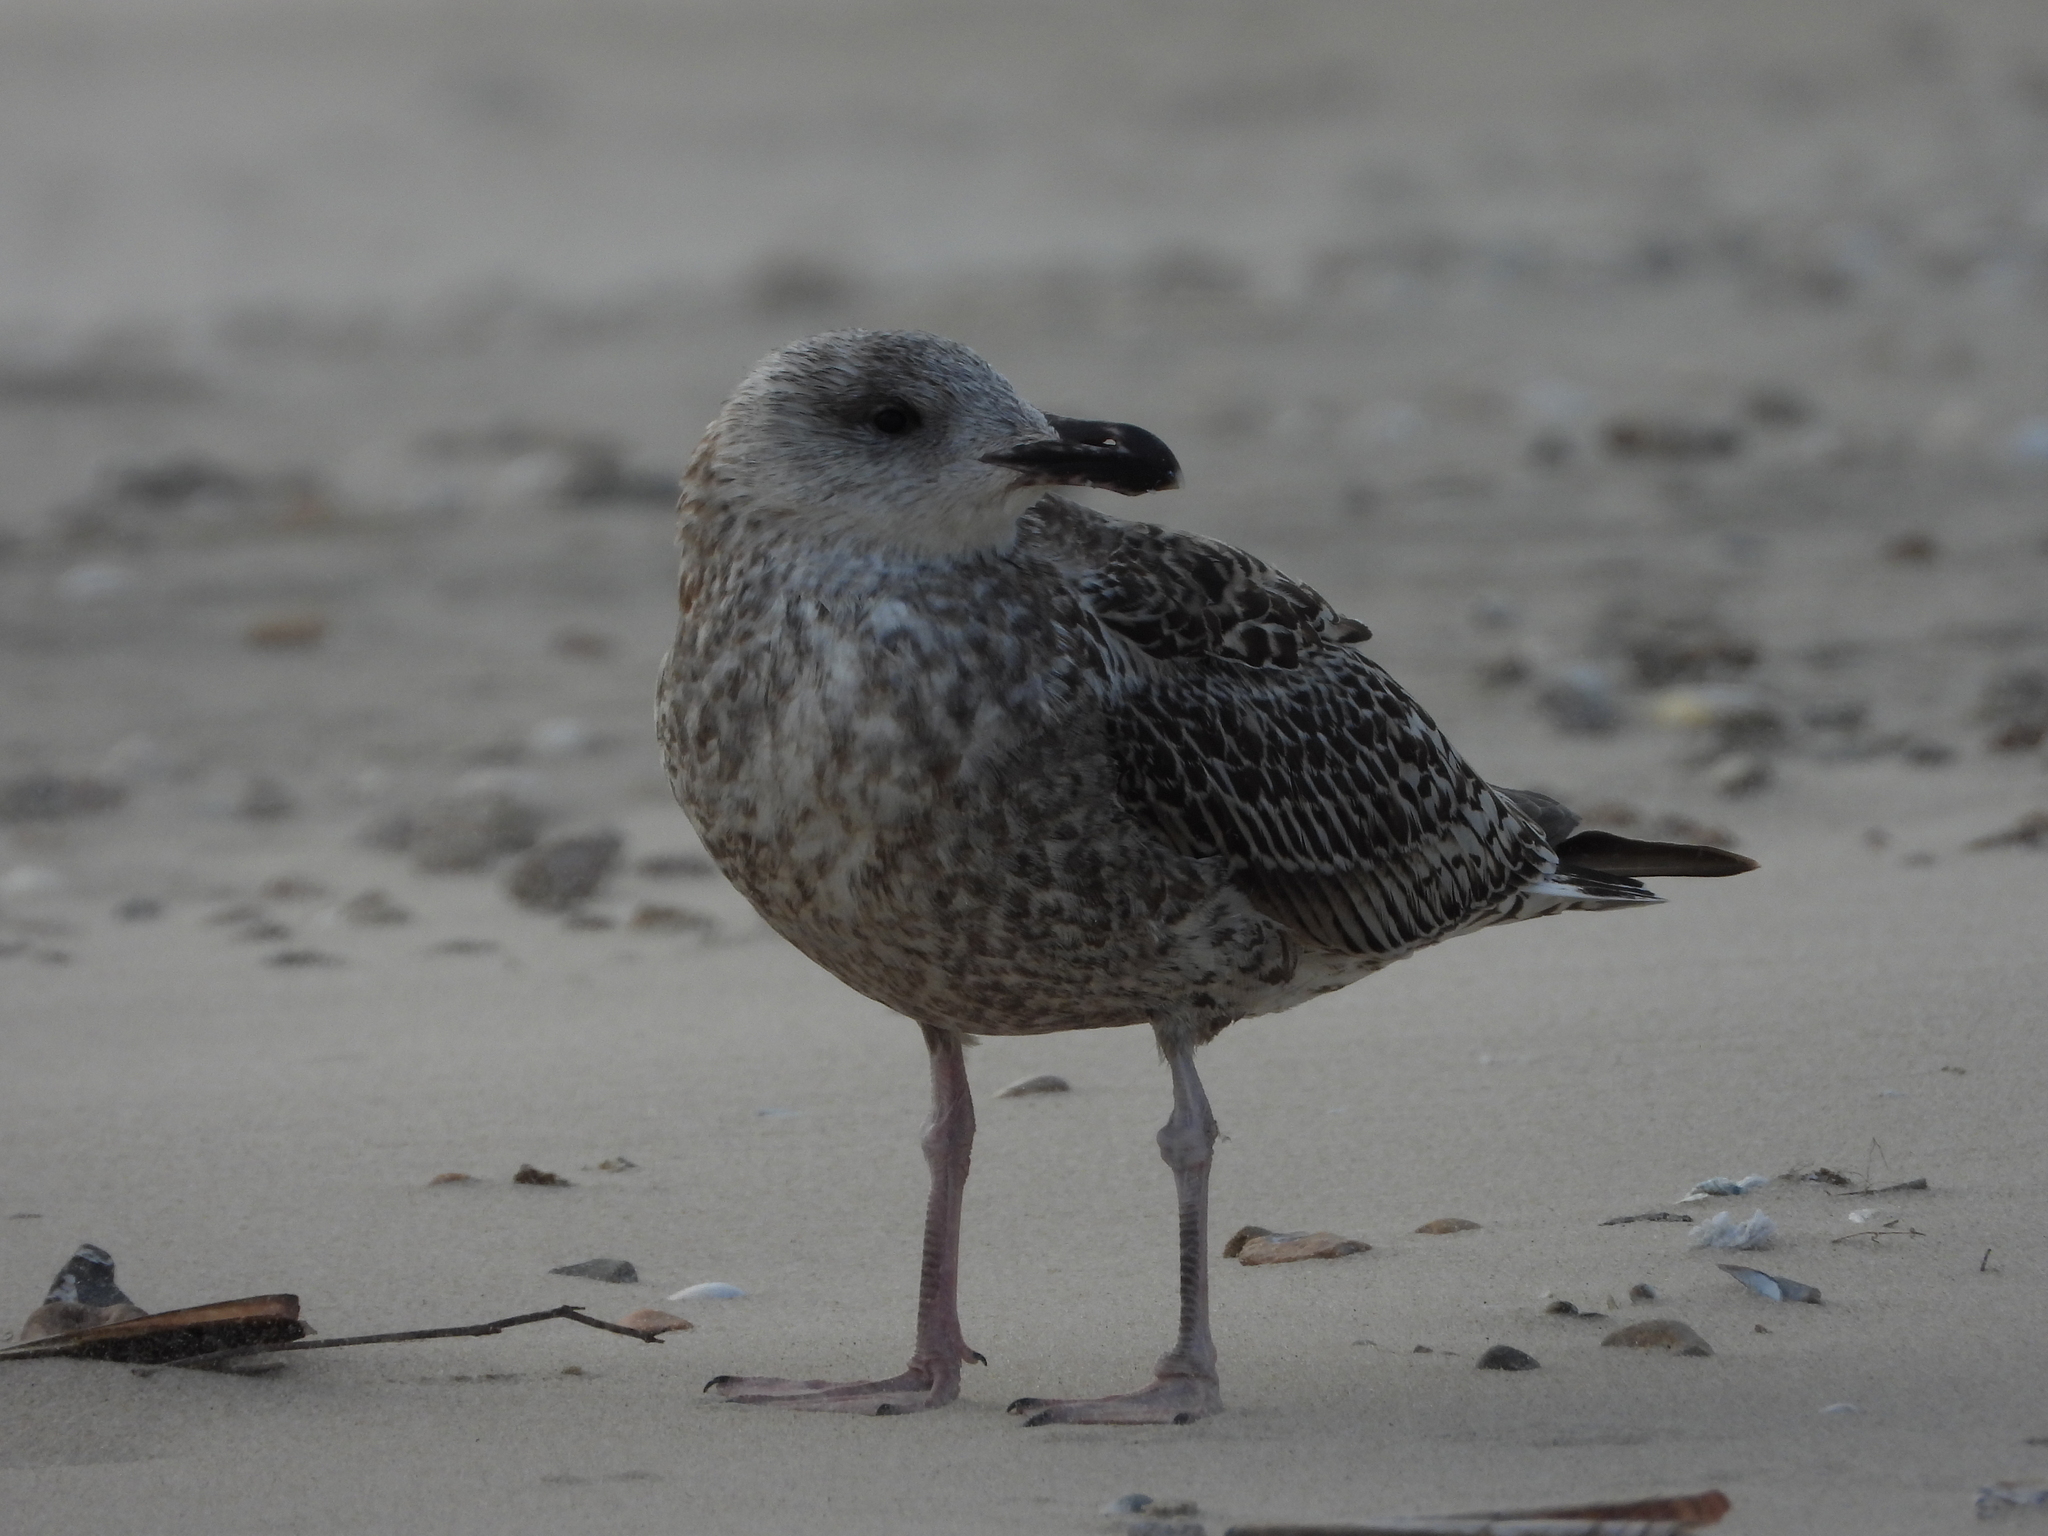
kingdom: Animalia
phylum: Chordata
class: Aves
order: Charadriiformes
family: Laridae
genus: Larus
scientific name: Larus argentatus
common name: Herring gull
